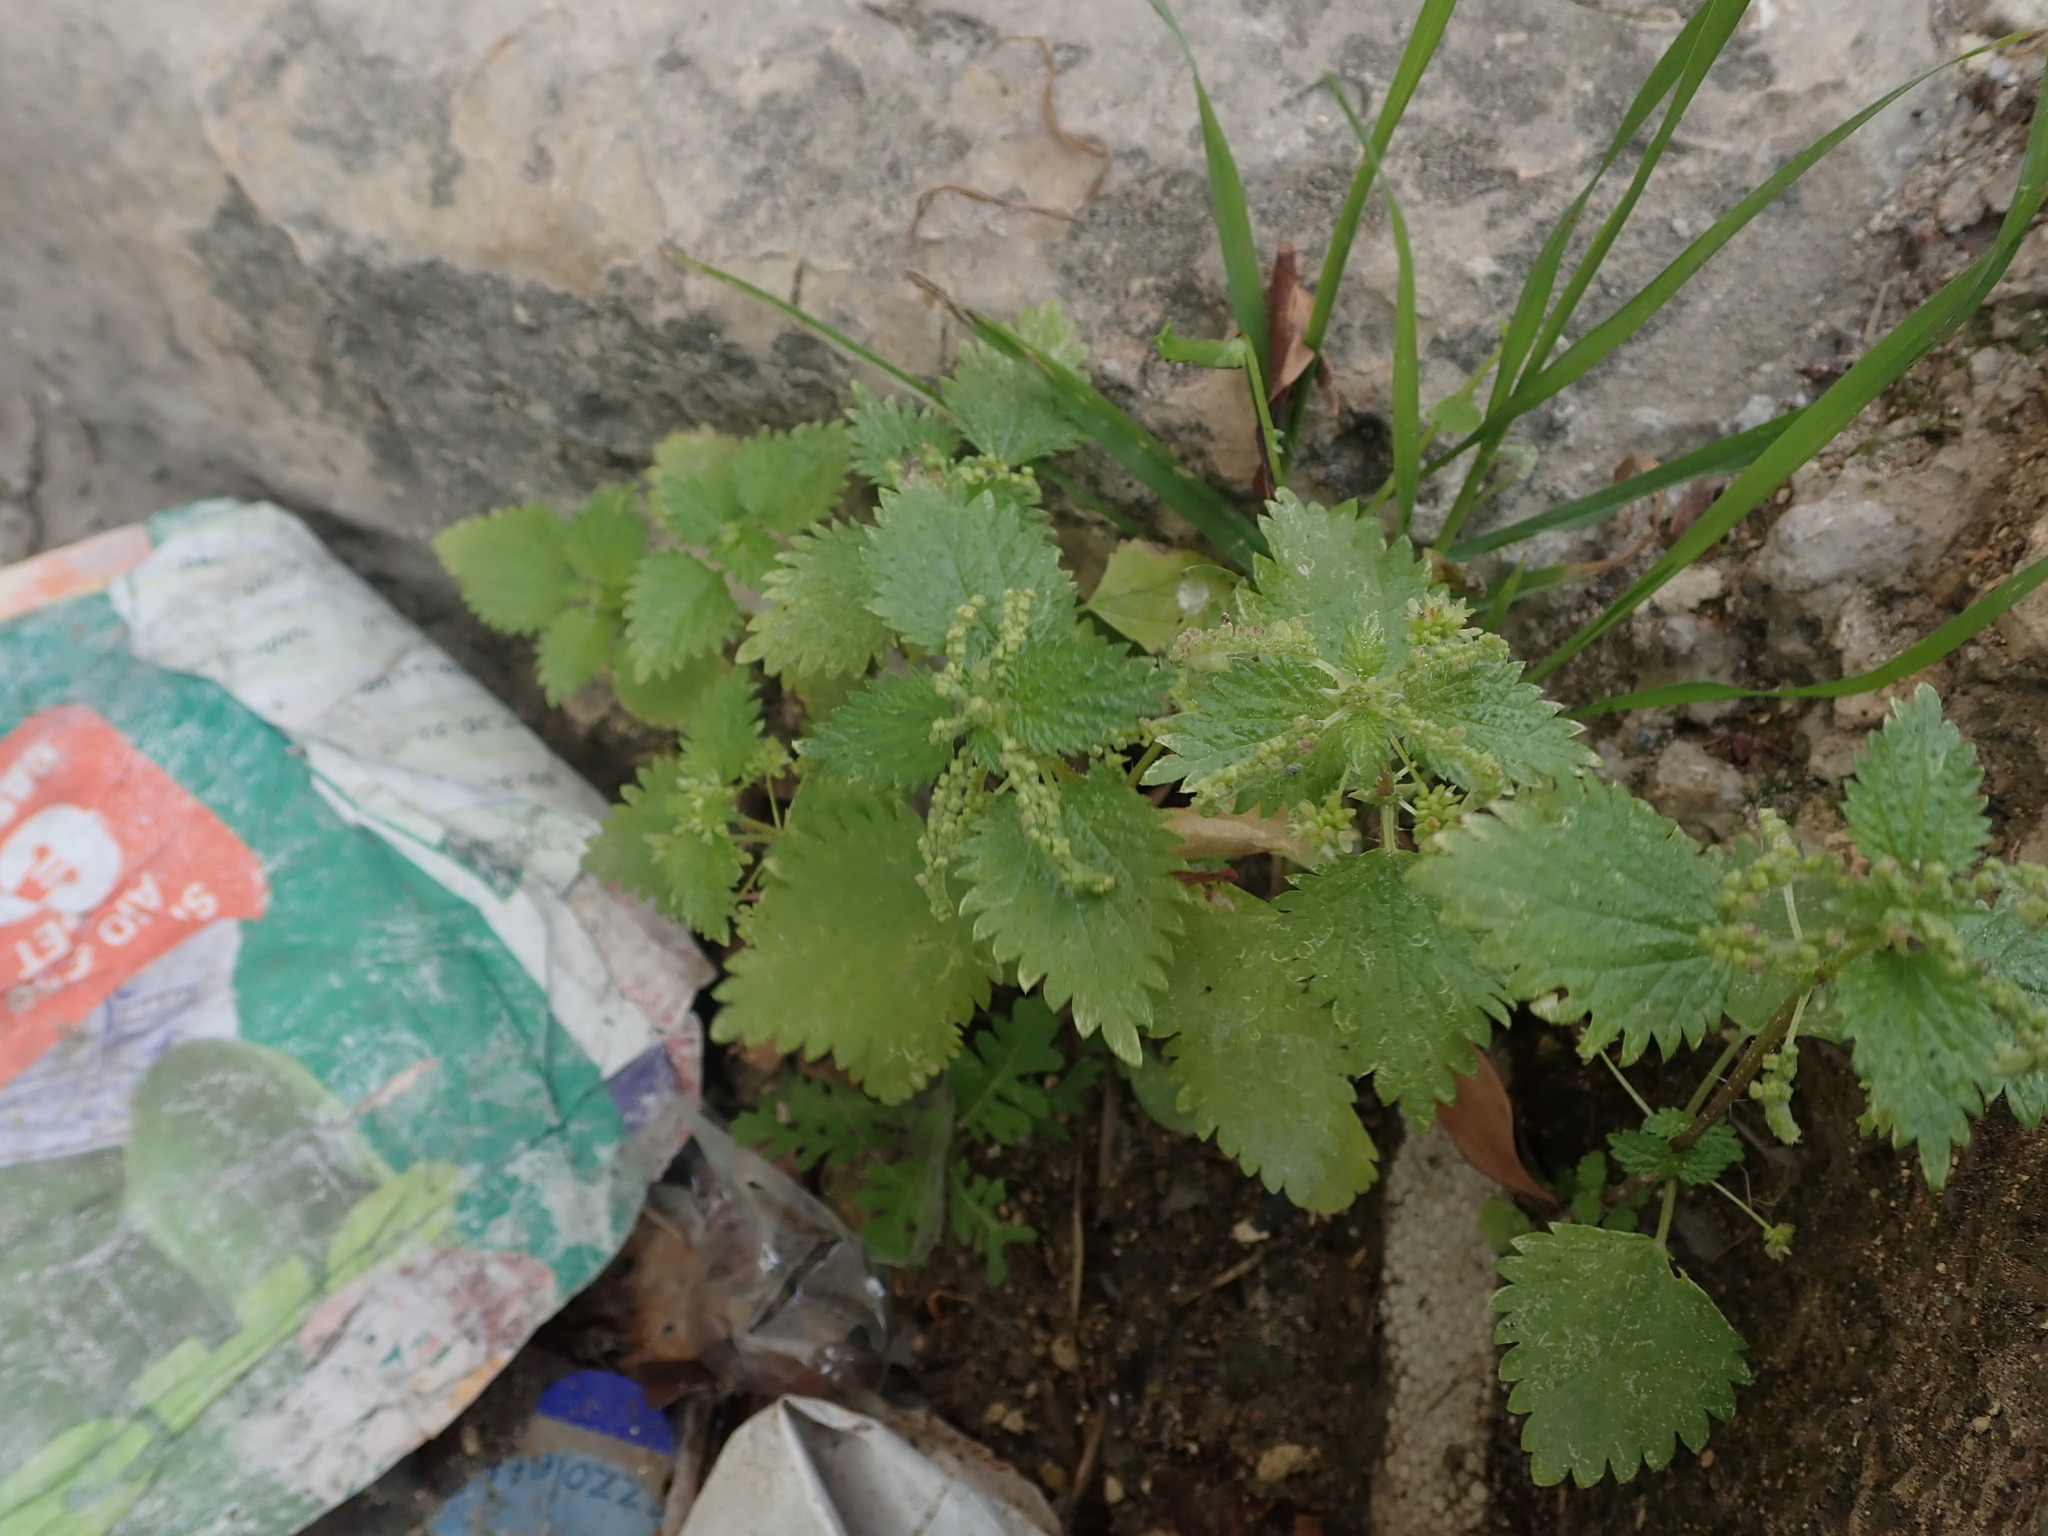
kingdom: Plantae
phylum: Tracheophyta
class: Magnoliopsida
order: Rosales
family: Urticaceae
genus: Urtica
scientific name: Urtica membranacea
